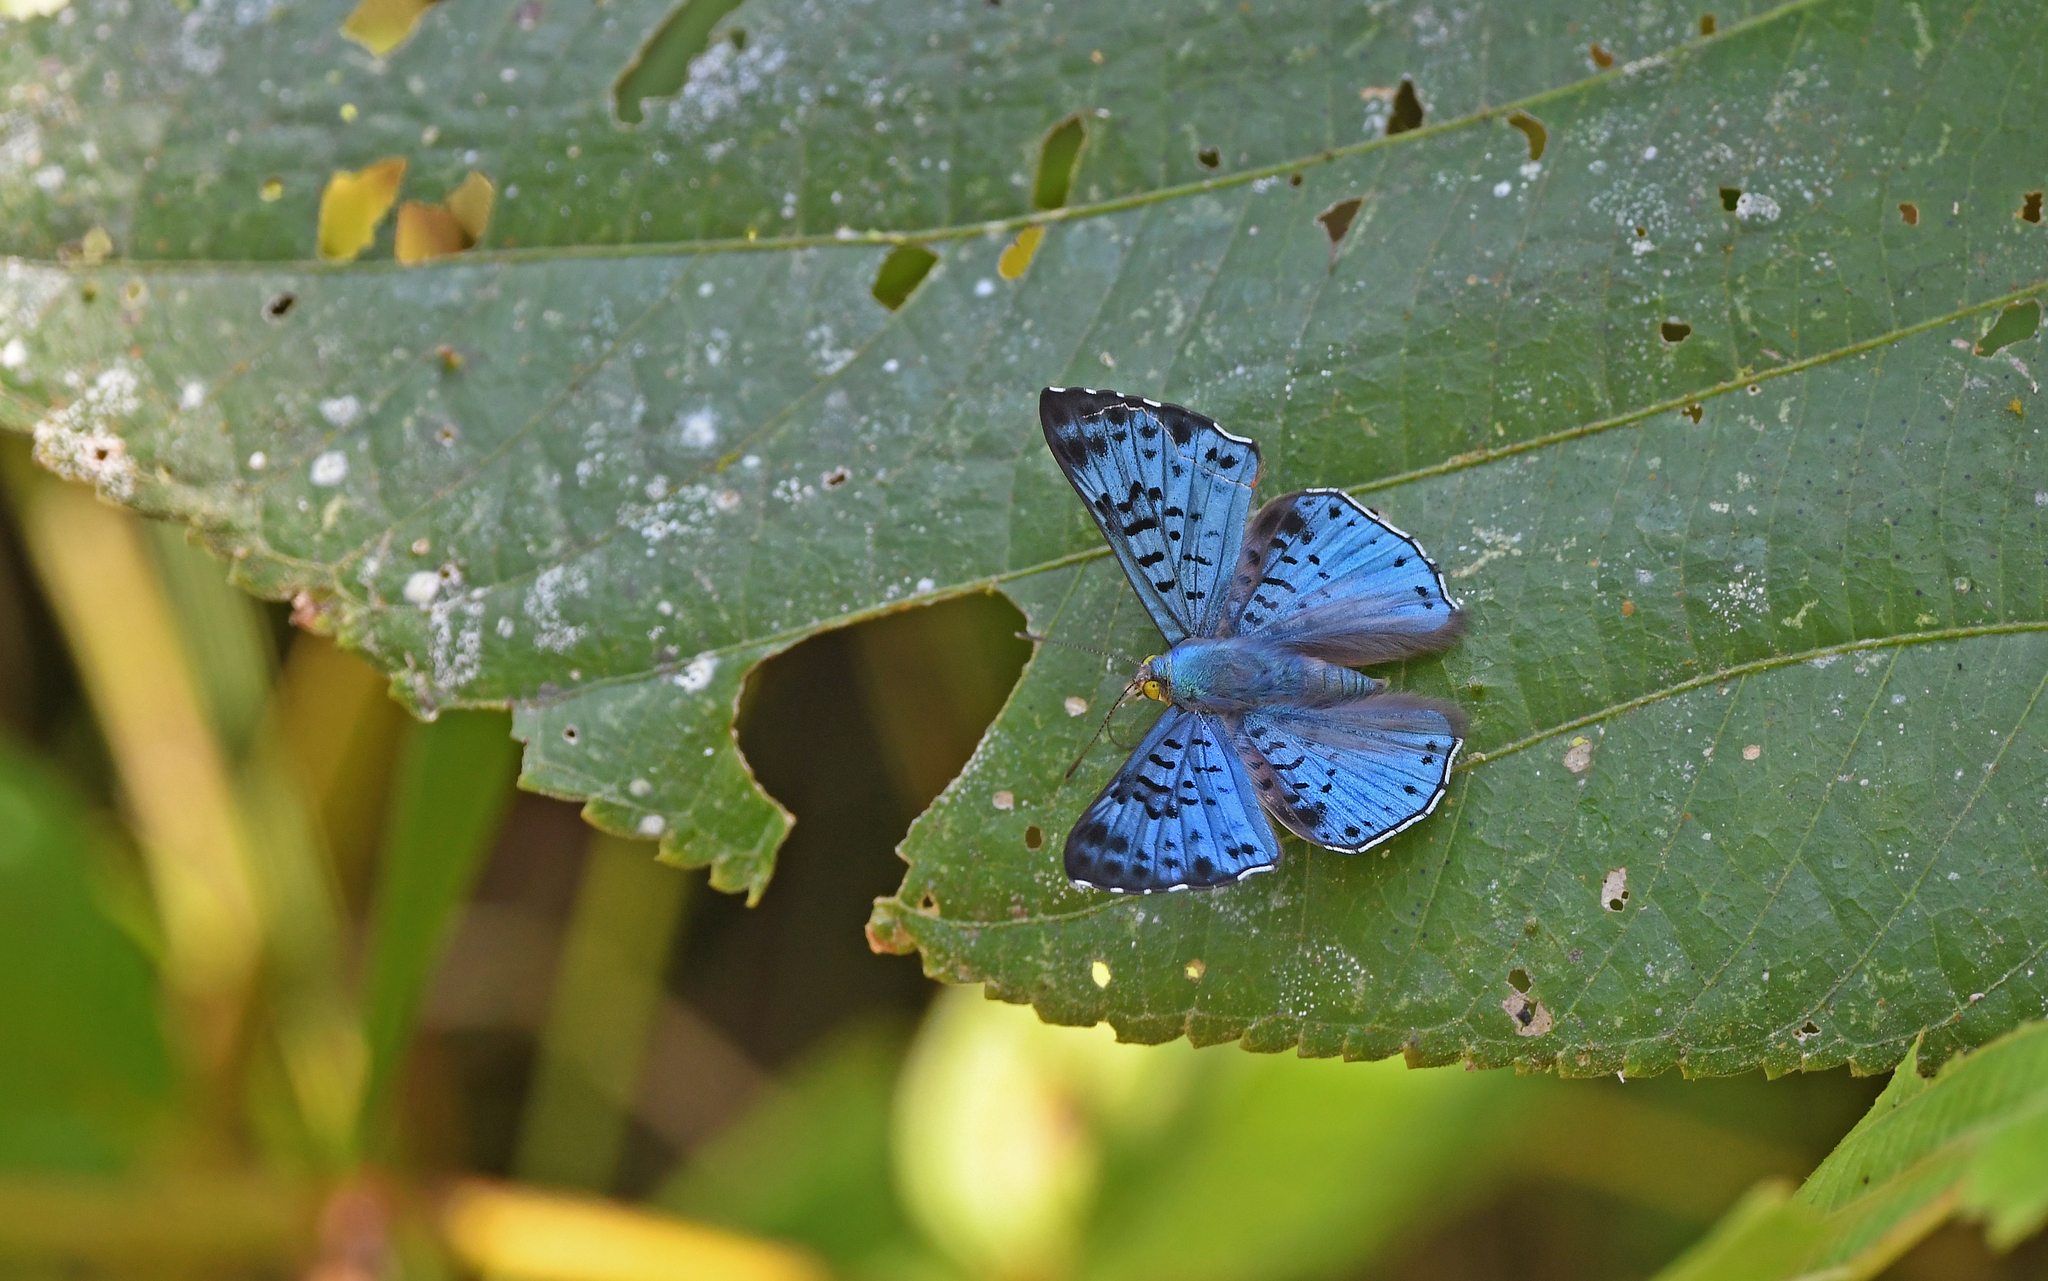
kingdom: Animalia
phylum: Arthropoda
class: Insecta
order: Lepidoptera
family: Riodinidae
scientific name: Riodinidae
